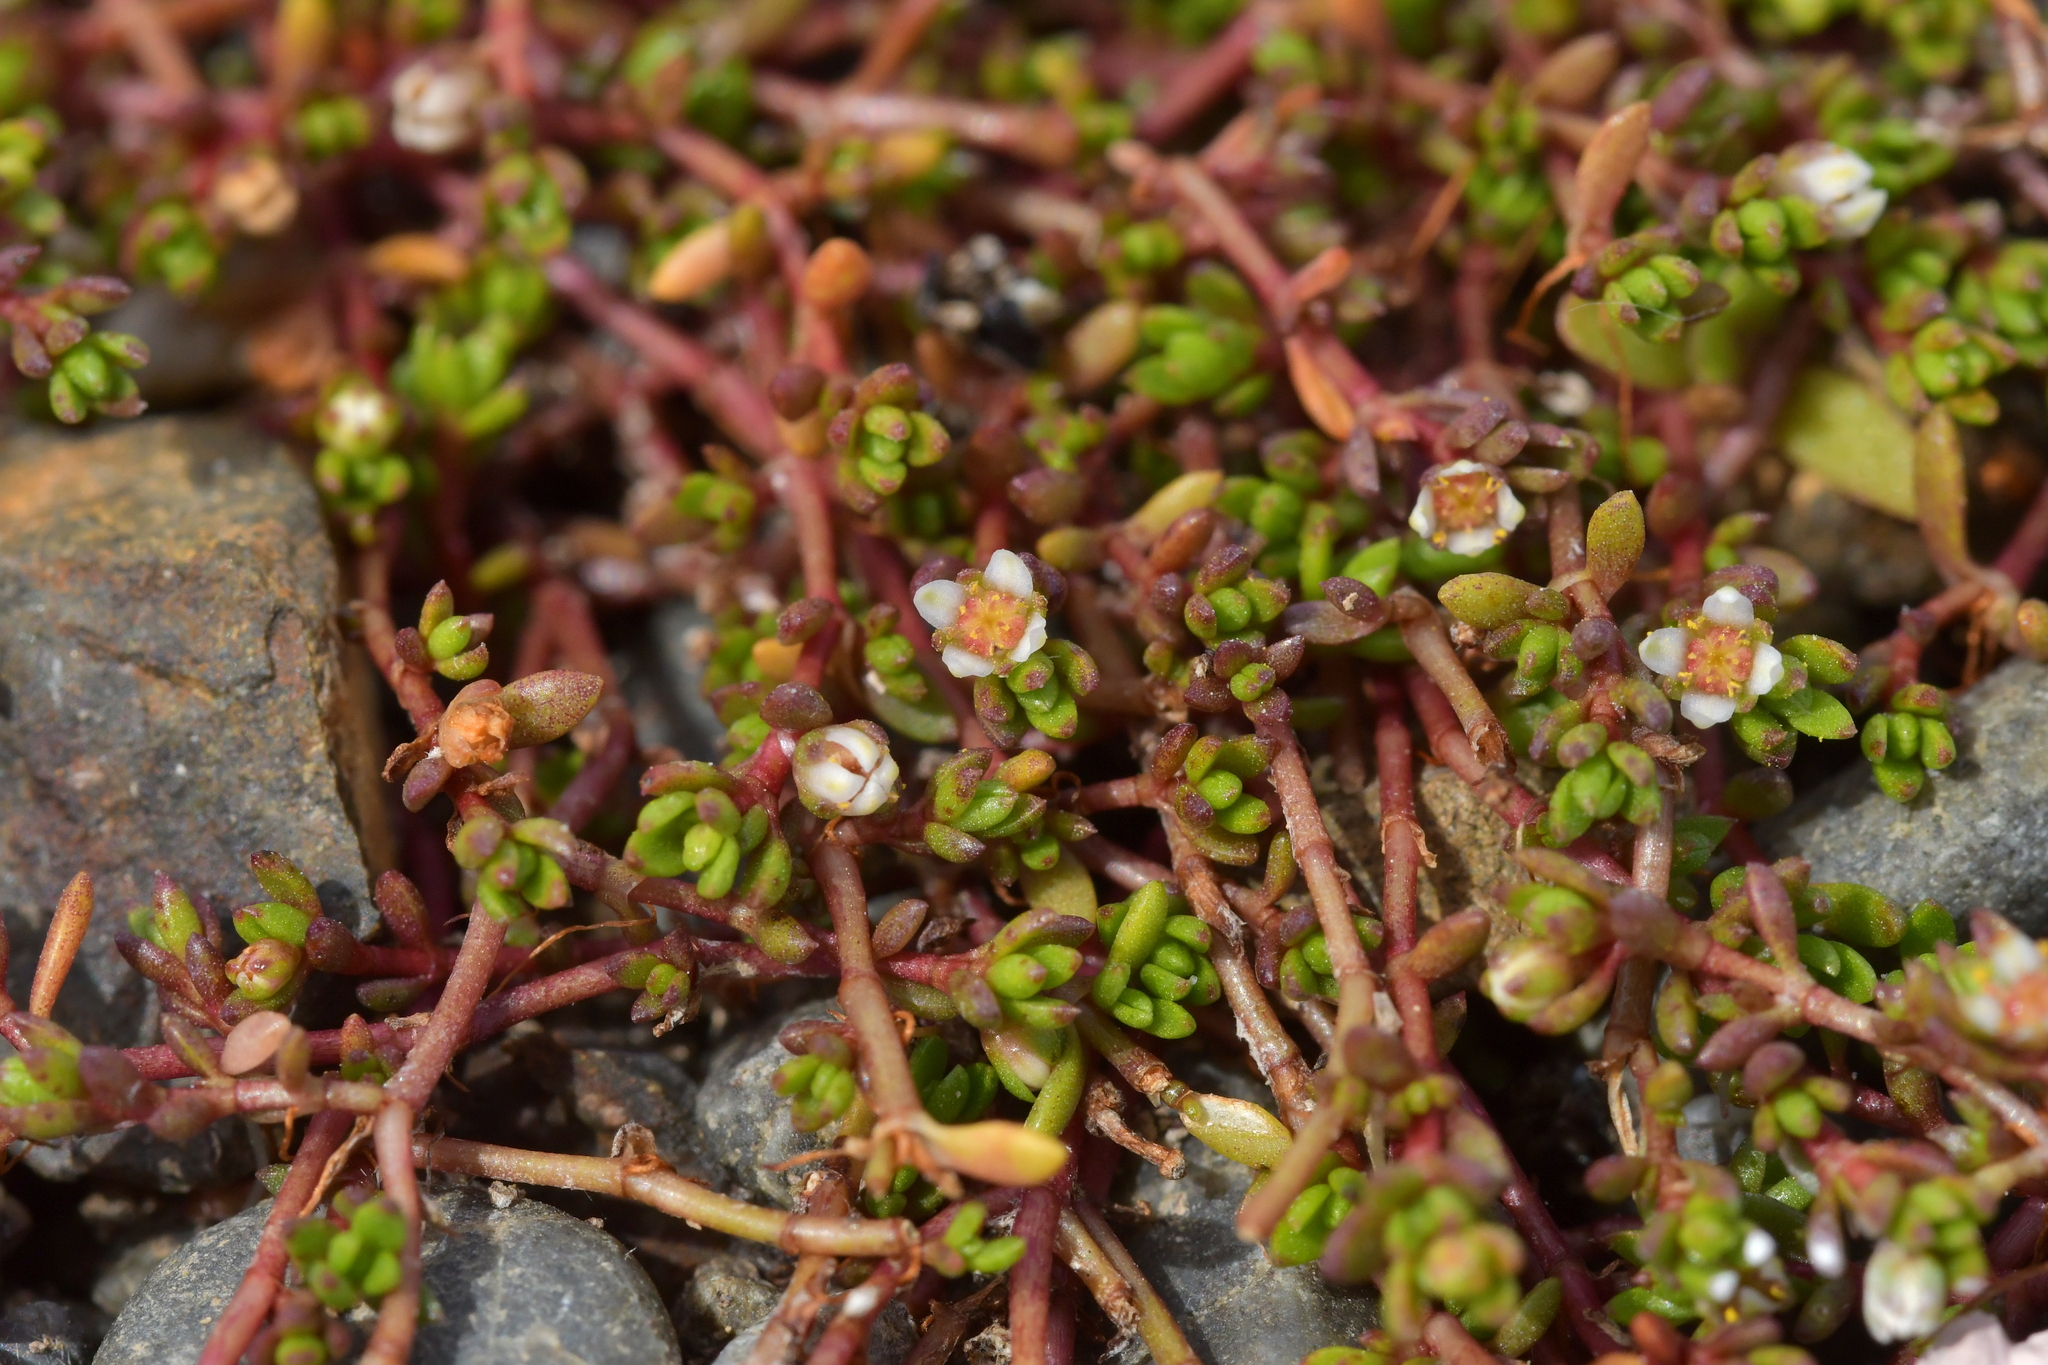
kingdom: Plantae
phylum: Tracheophyta
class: Magnoliopsida
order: Saxifragales
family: Crassulaceae
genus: Crassula
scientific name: Crassula sinclairii
